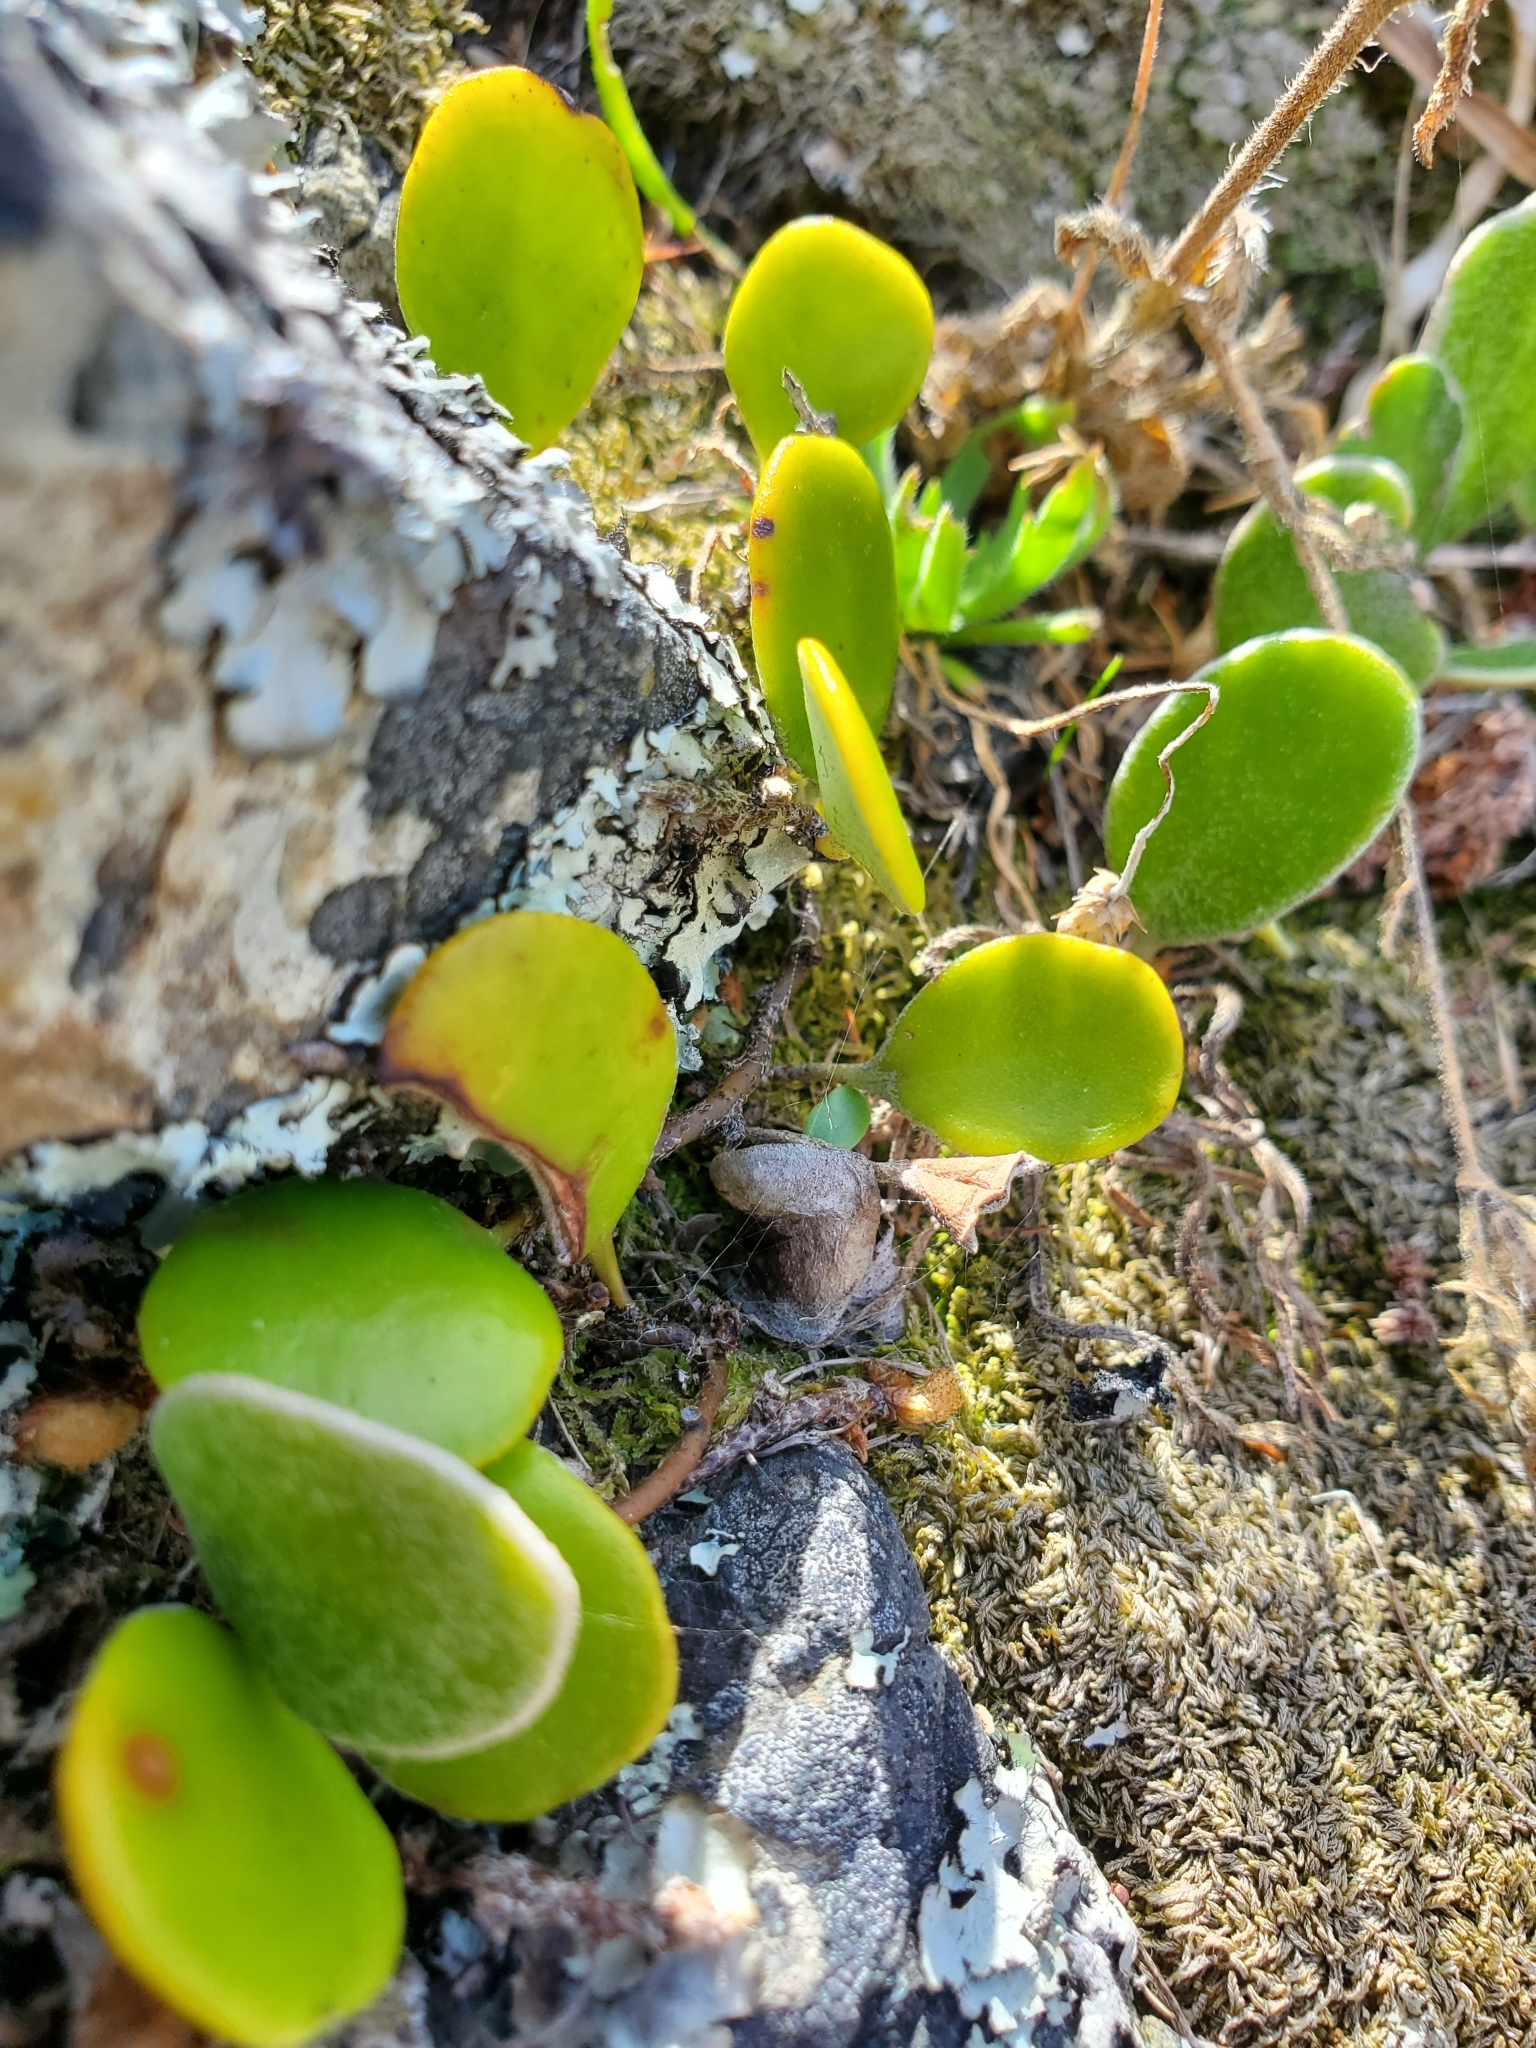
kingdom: Plantae
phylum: Tracheophyta
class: Polypodiopsida
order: Polypodiales
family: Polypodiaceae
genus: Pyrrosia
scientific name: Pyrrosia eleagnifolia
